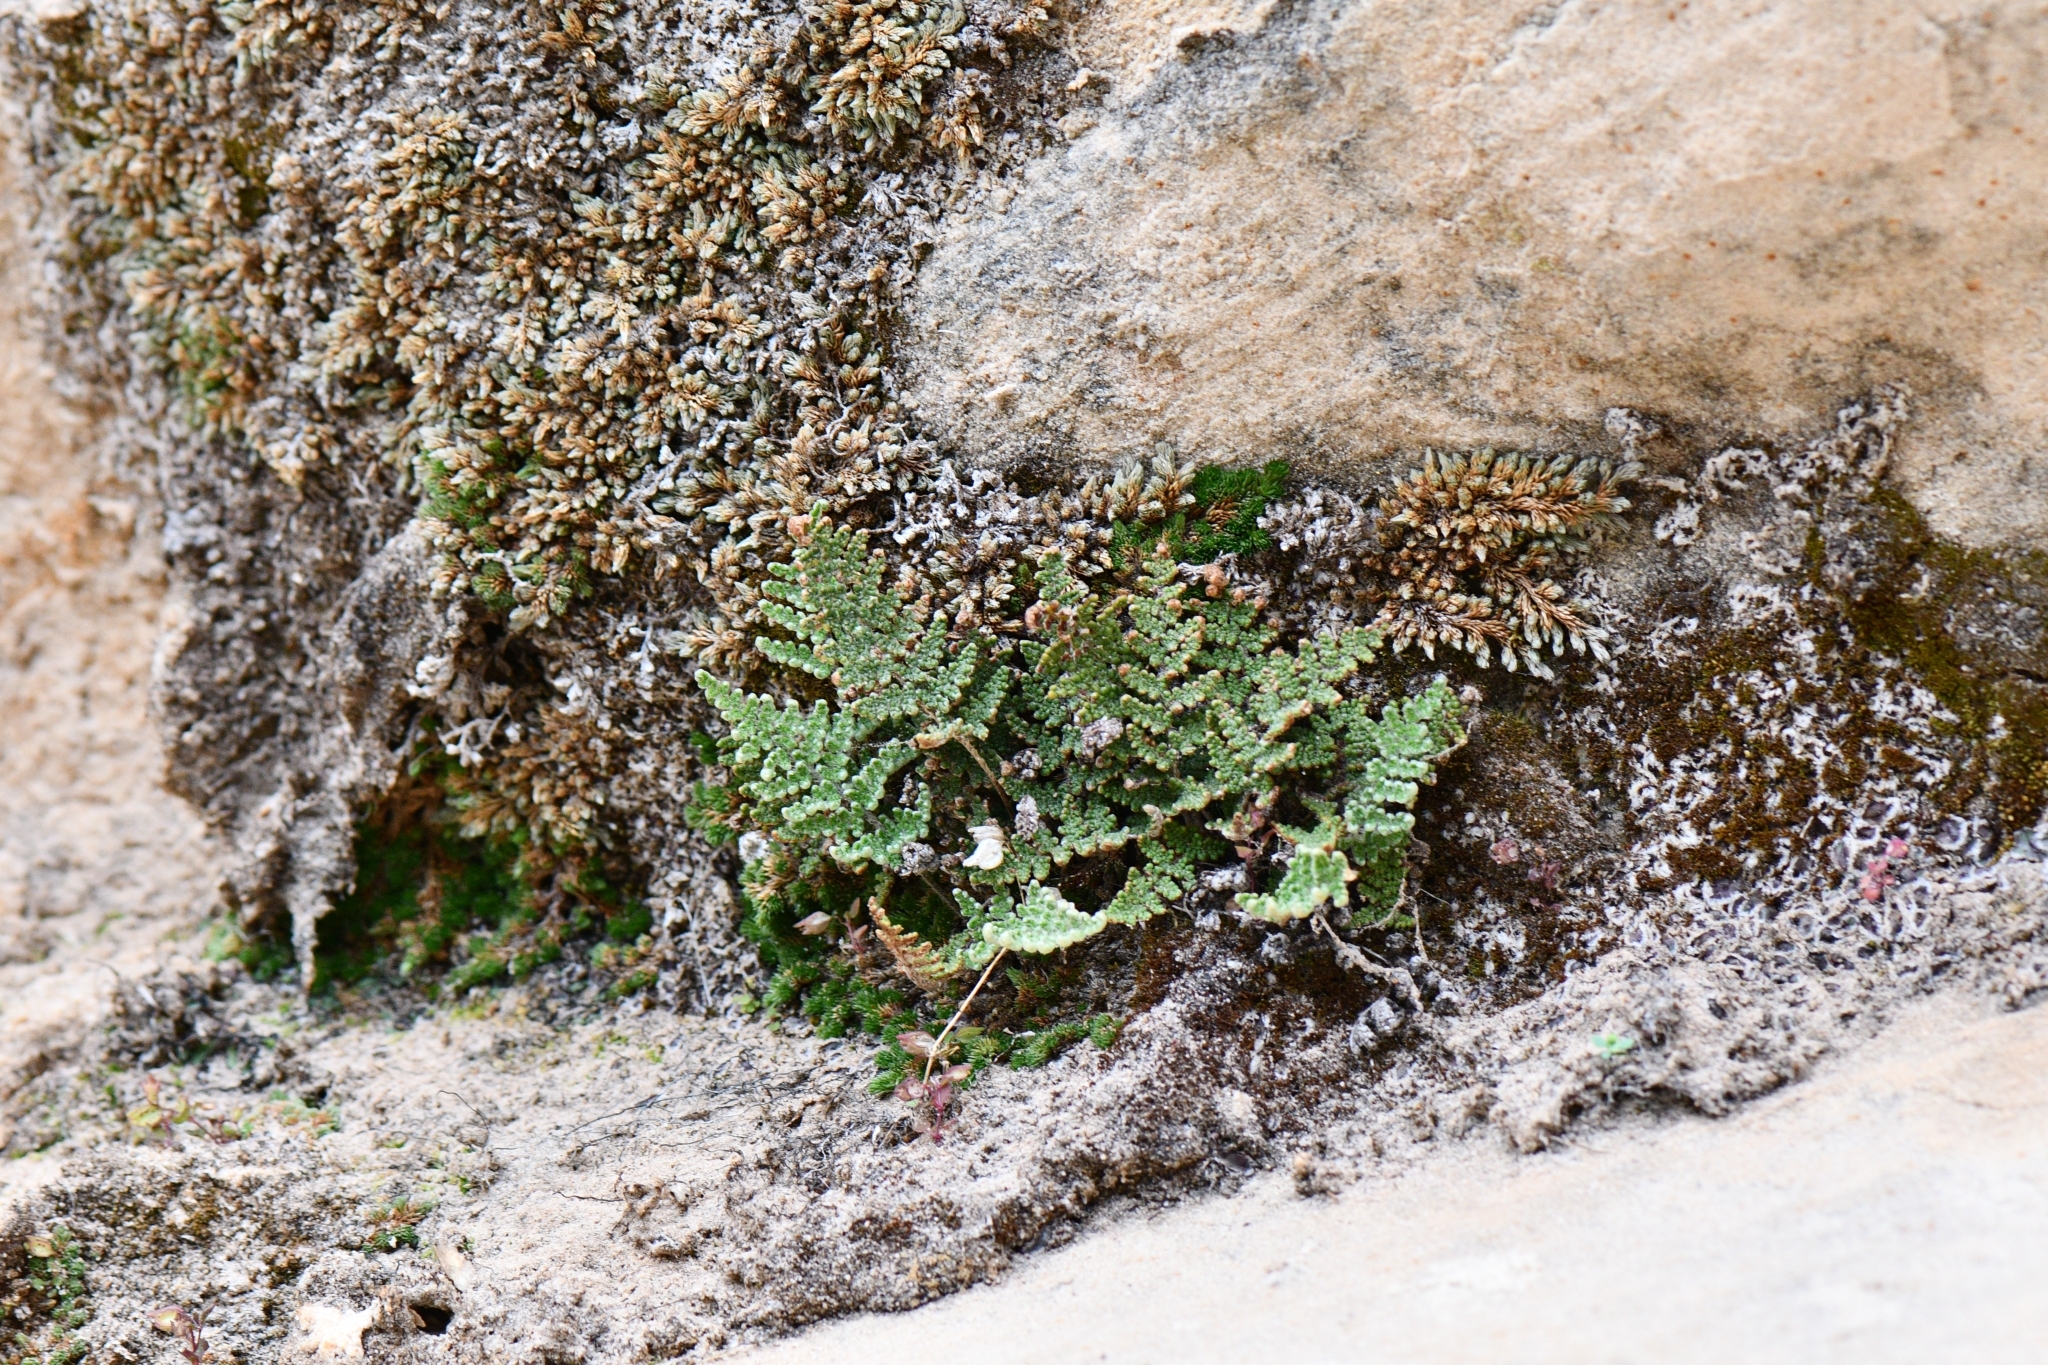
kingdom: Plantae
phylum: Tracheophyta
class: Polypodiopsida
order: Polypodiales
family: Pteridaceae
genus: Myriopteris
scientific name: Myriopteris covillei
